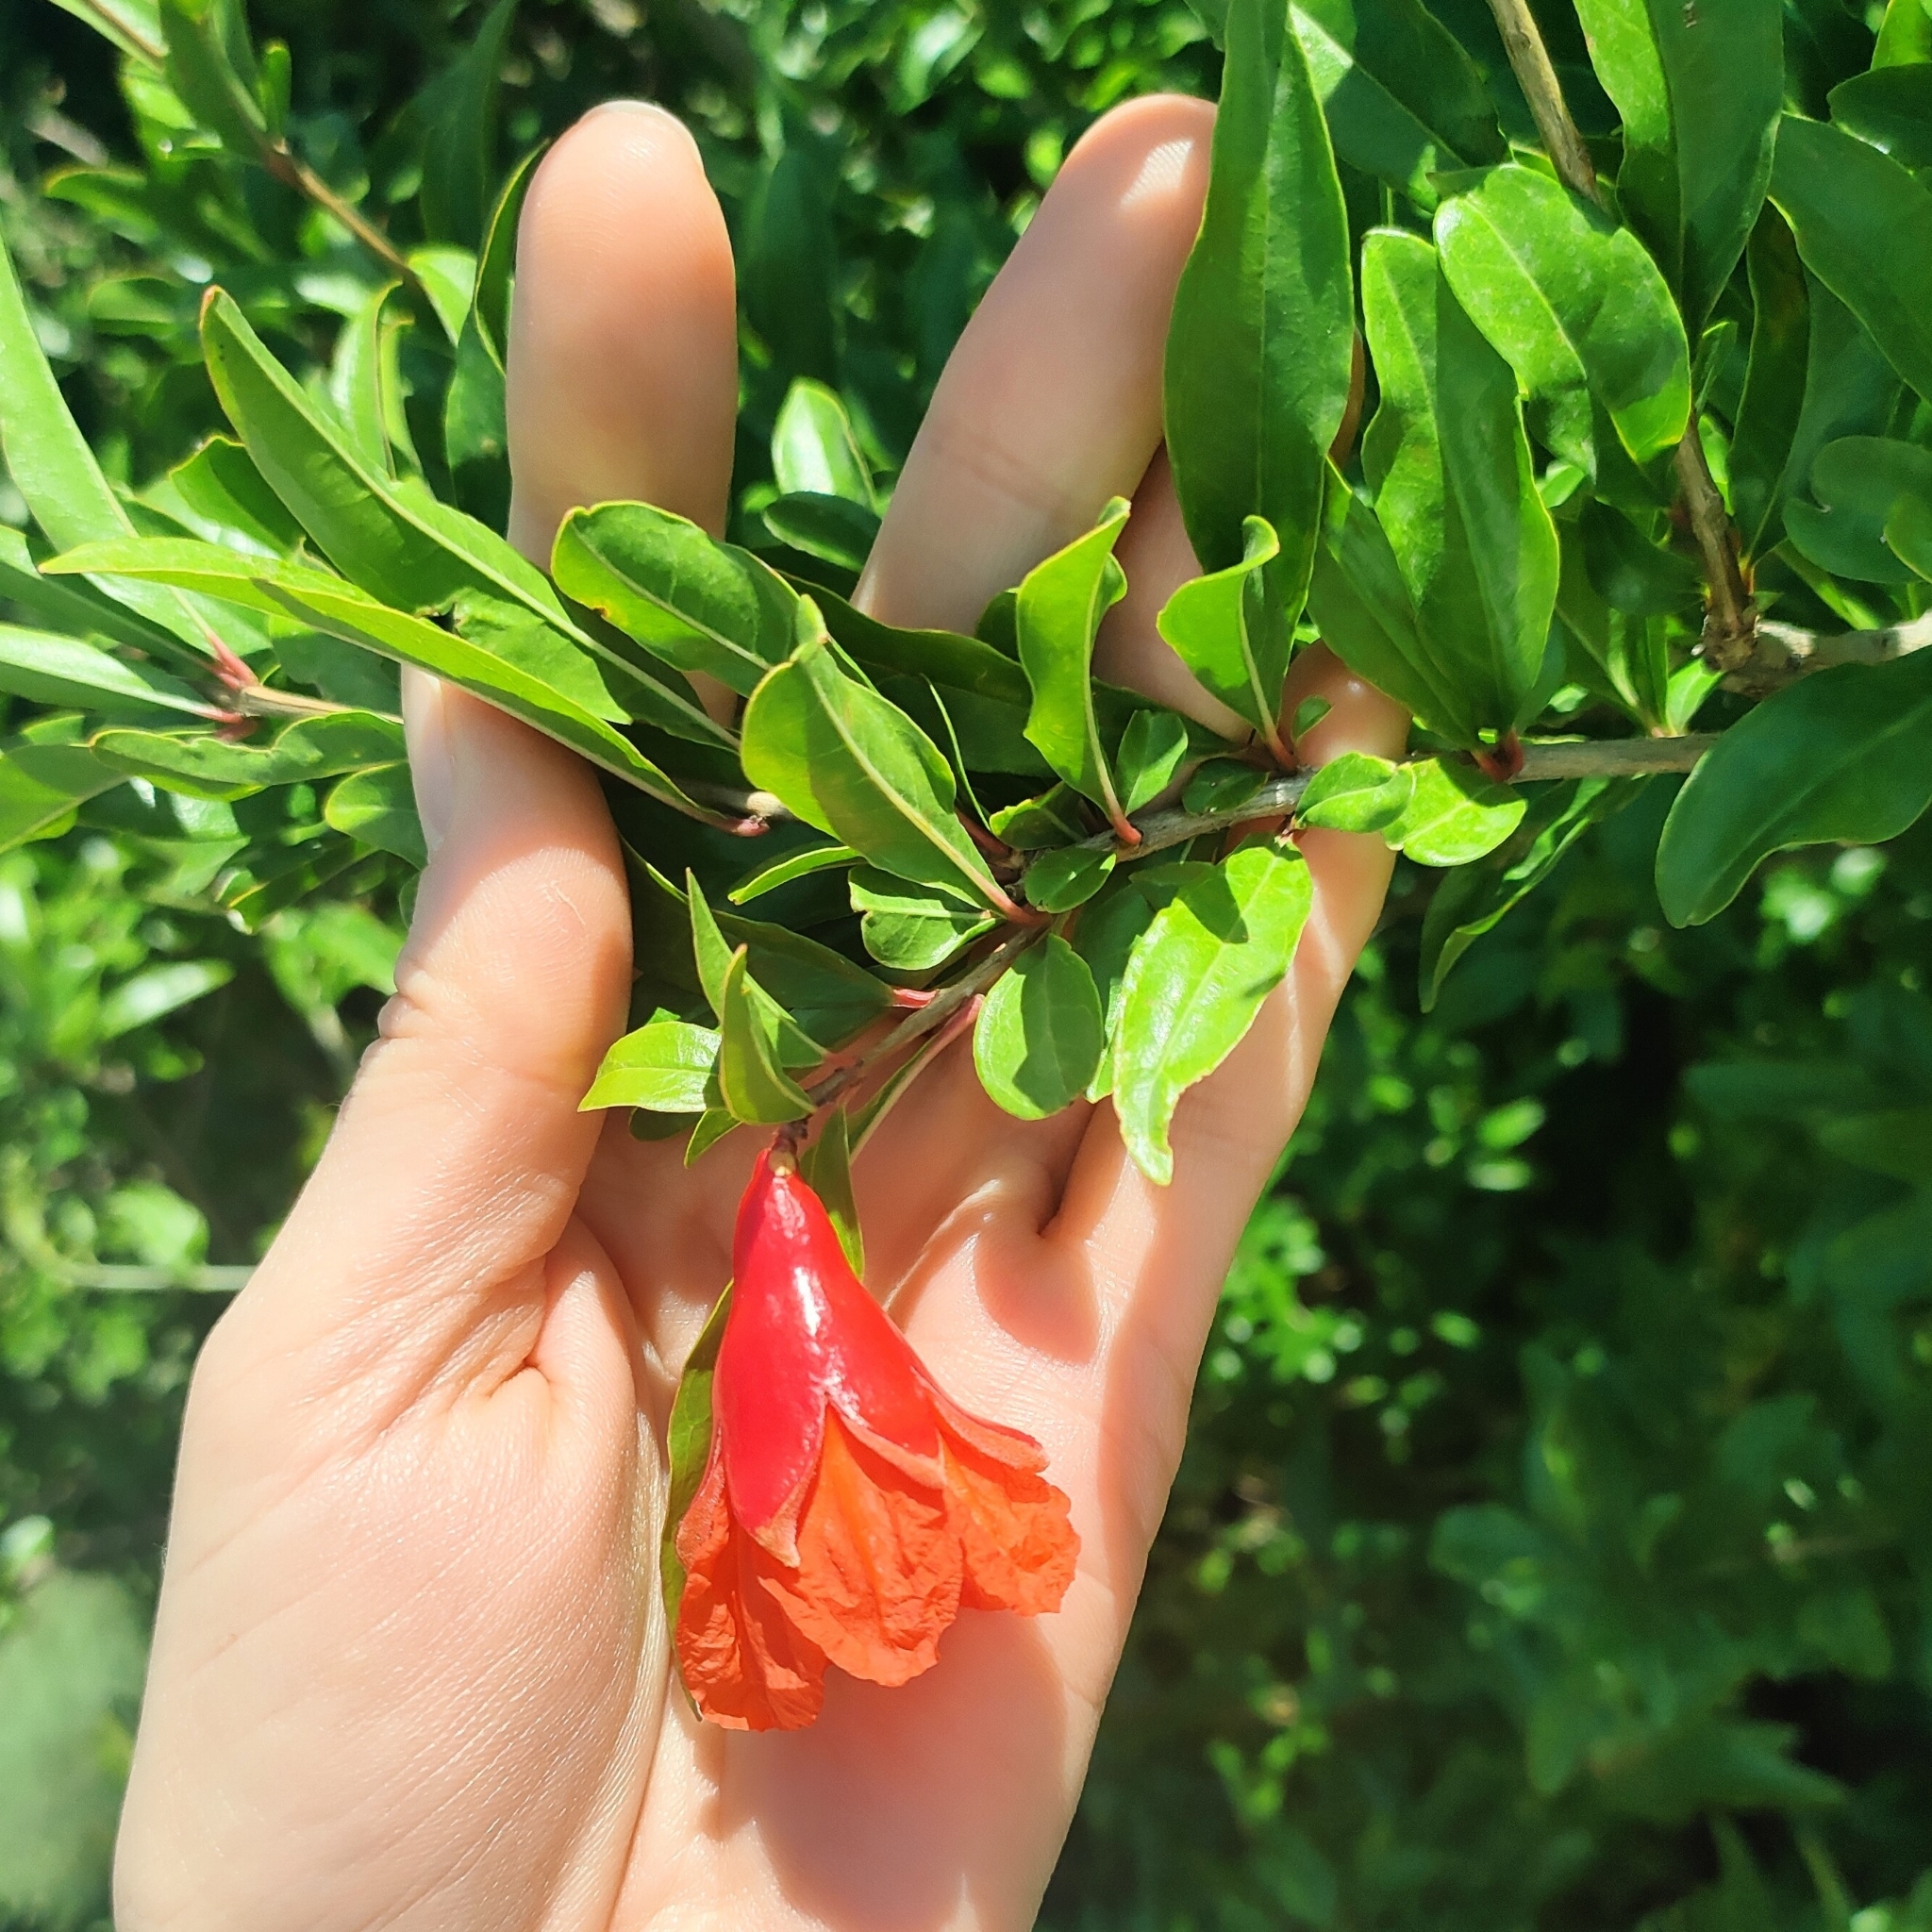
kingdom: Plantae
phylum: Tracheophyta
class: Magnoliopsida
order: Myrtales
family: Lythraceae
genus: Punica
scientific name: Punica granatum
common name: Pomegranate
